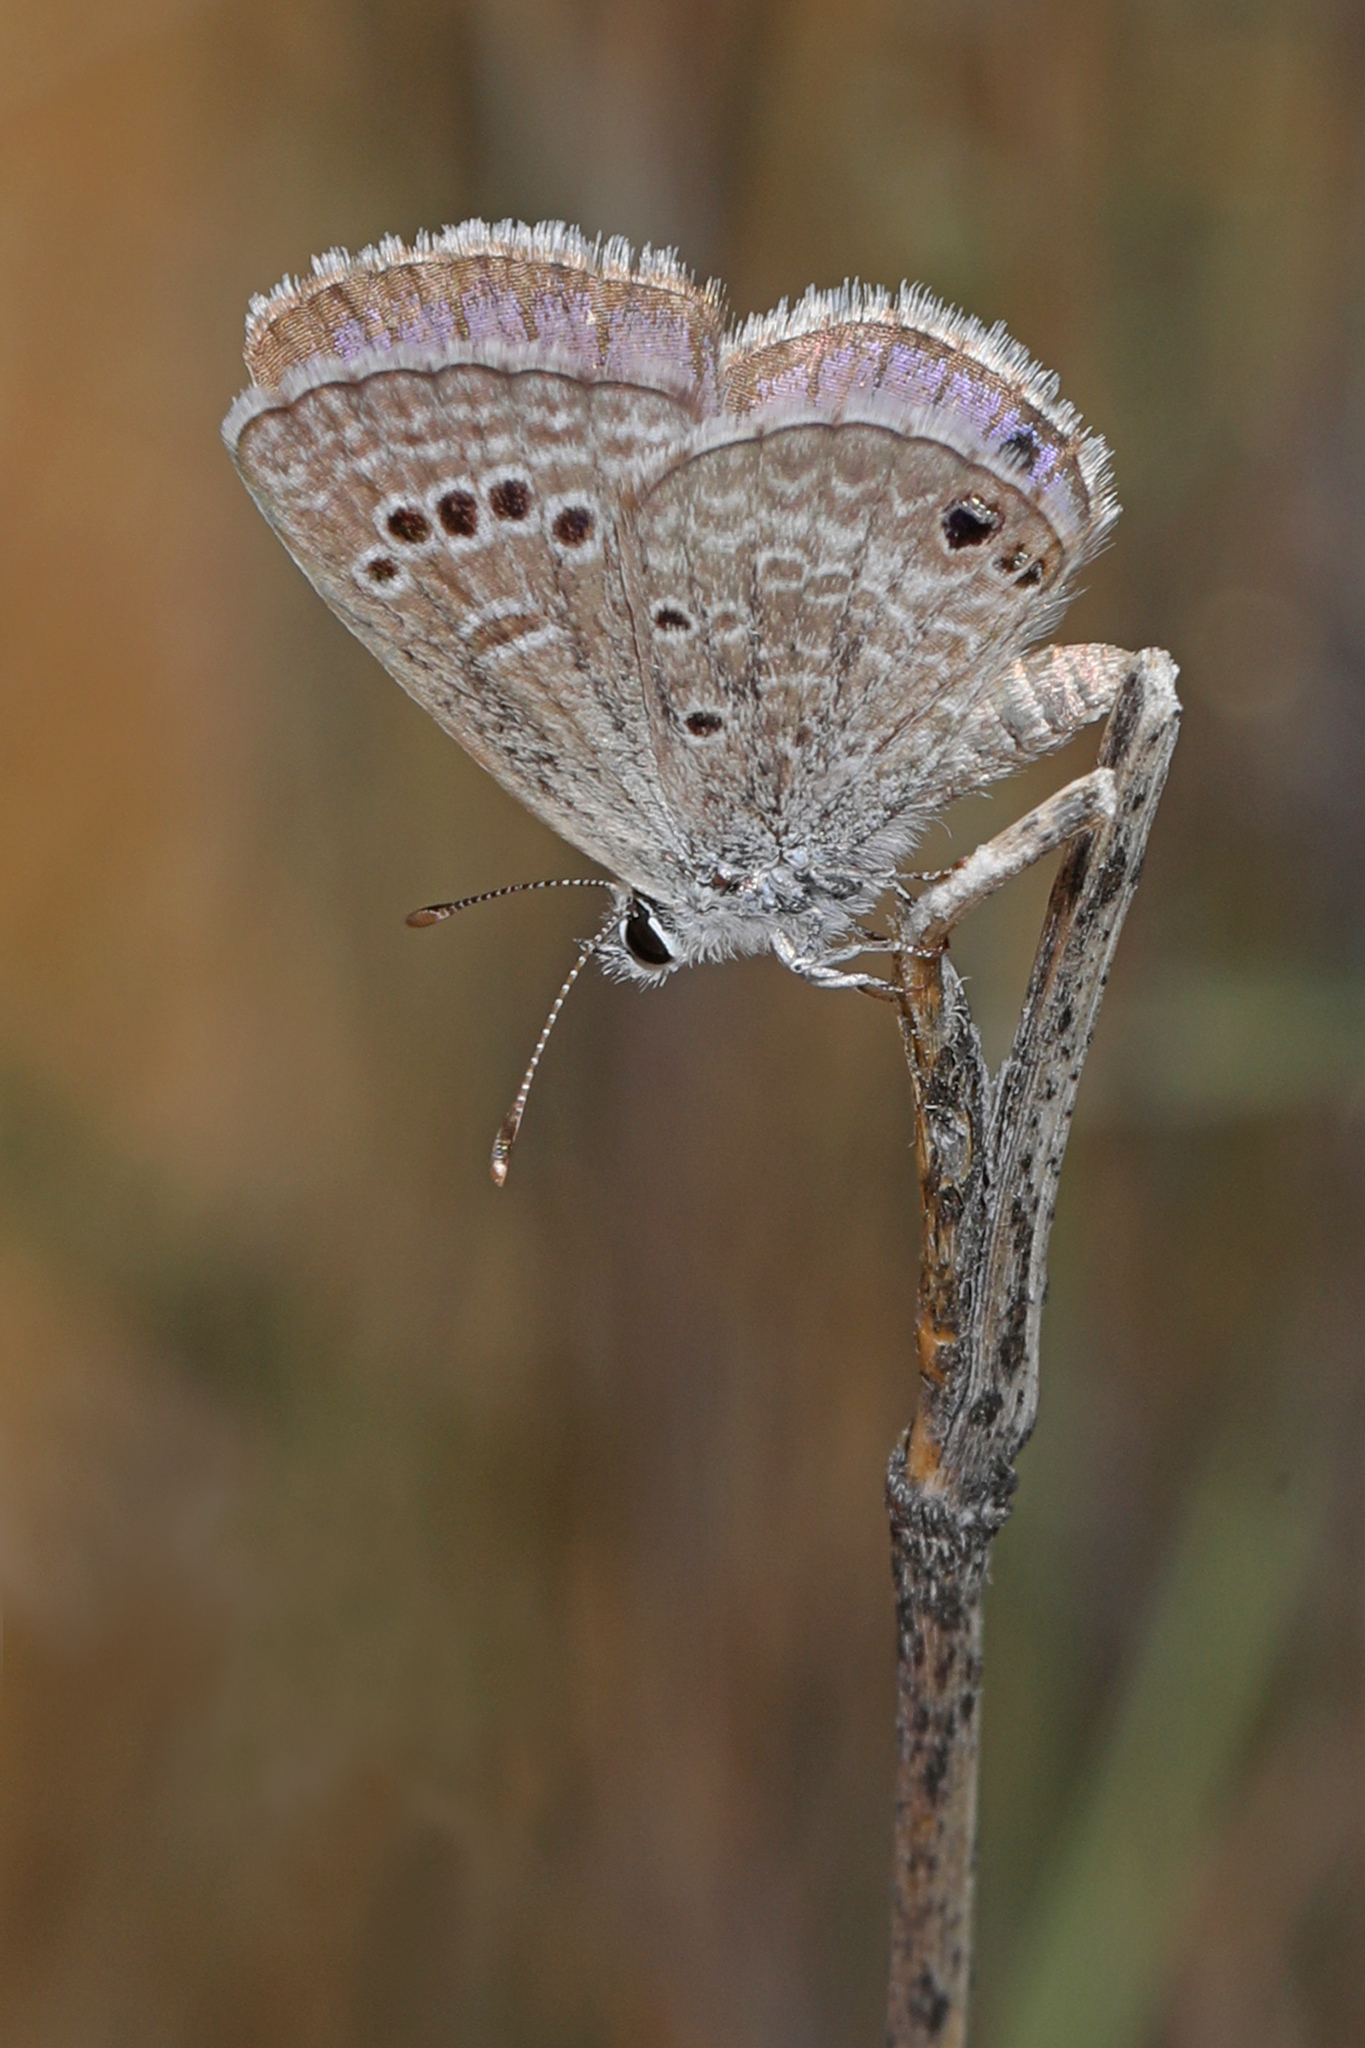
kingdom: Animalia
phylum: Arthropoda
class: Insecta
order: Lepidoptera
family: Lycaenidae
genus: Echinargus
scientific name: Echinargus isola
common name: Reakirt's blue
